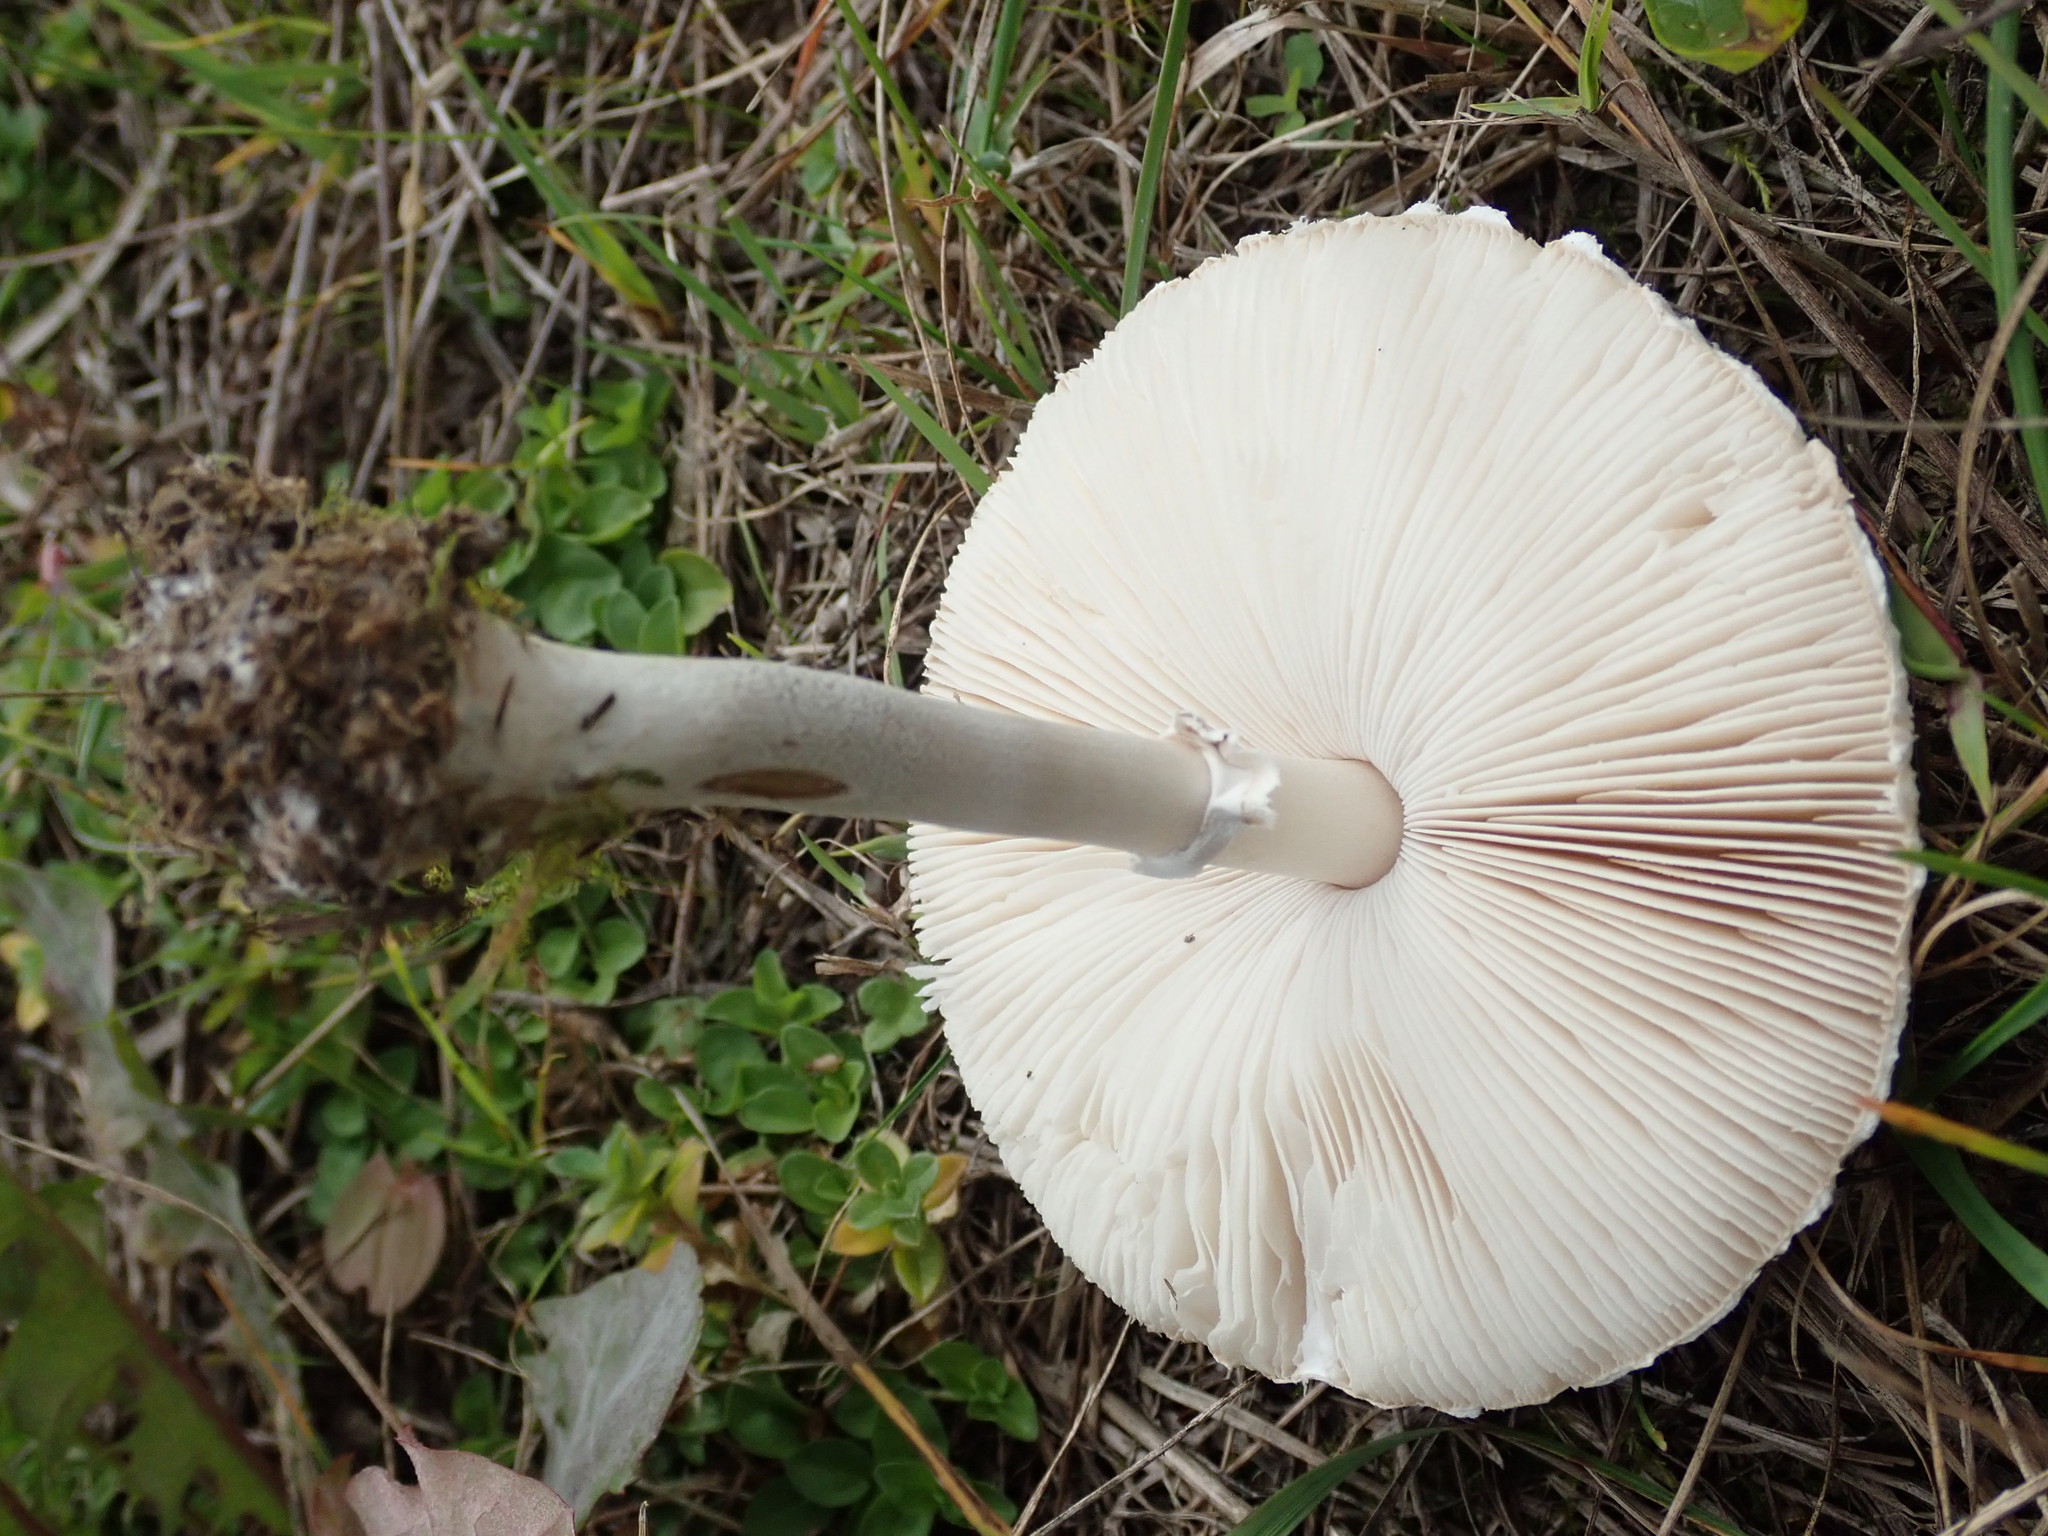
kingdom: Fungi
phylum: Basidiomycota
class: Agaricomycetes
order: Agaricales
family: Agaricaceae
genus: Macrolepiota
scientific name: Macrolepiota excoriata
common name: Frayed parasol
